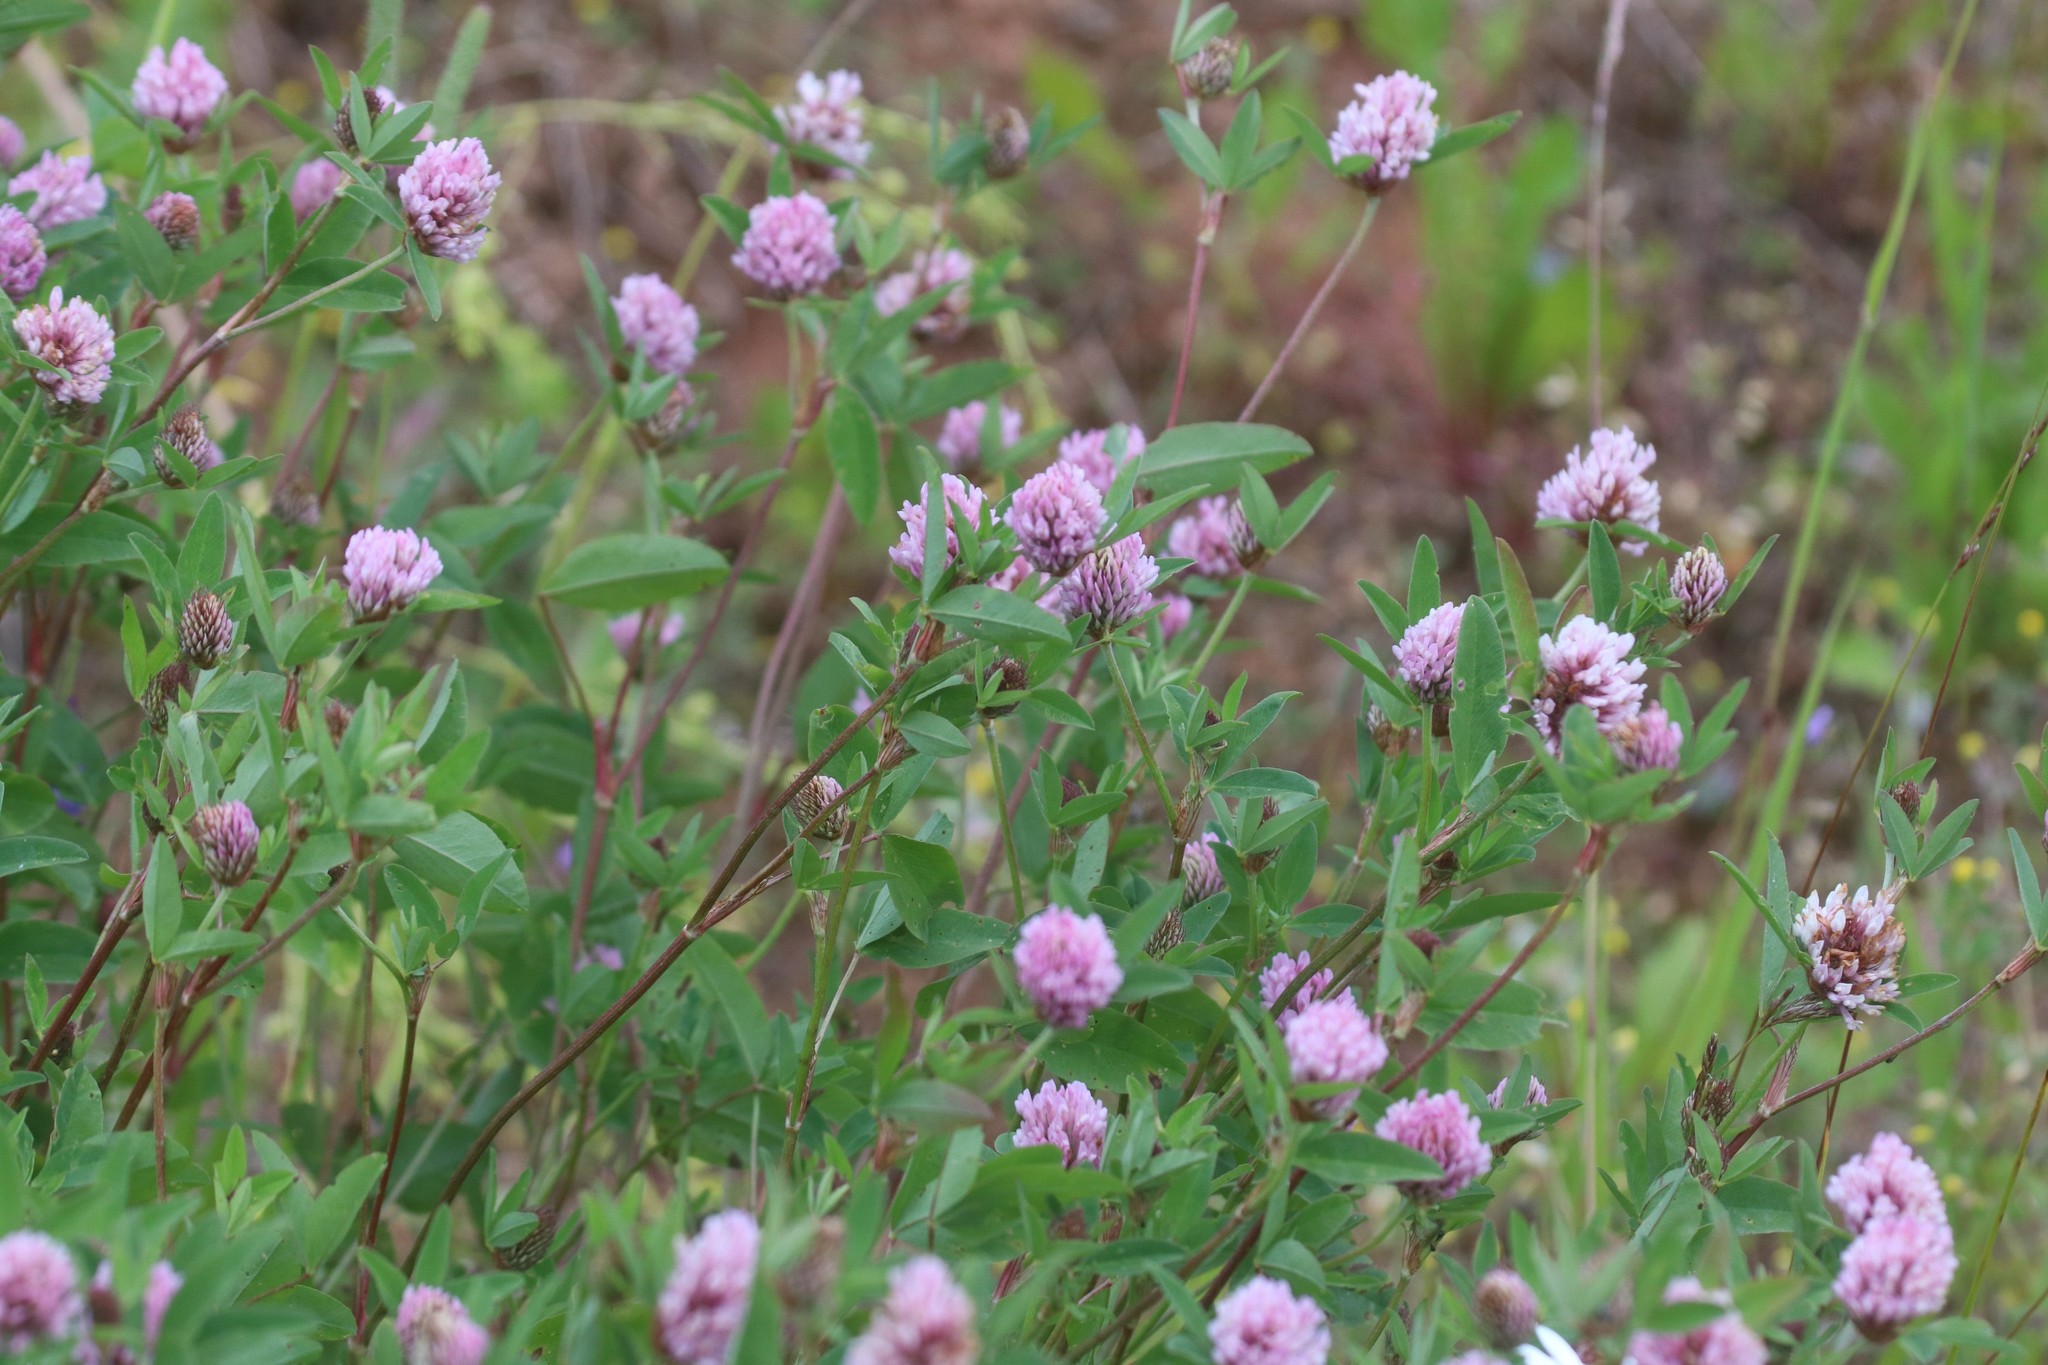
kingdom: Plantae
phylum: Tracheophyta
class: Magnoliopsida
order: Fabales
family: Fabaceae
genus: Trifolium
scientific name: Trifolium pratense
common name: Red clover
